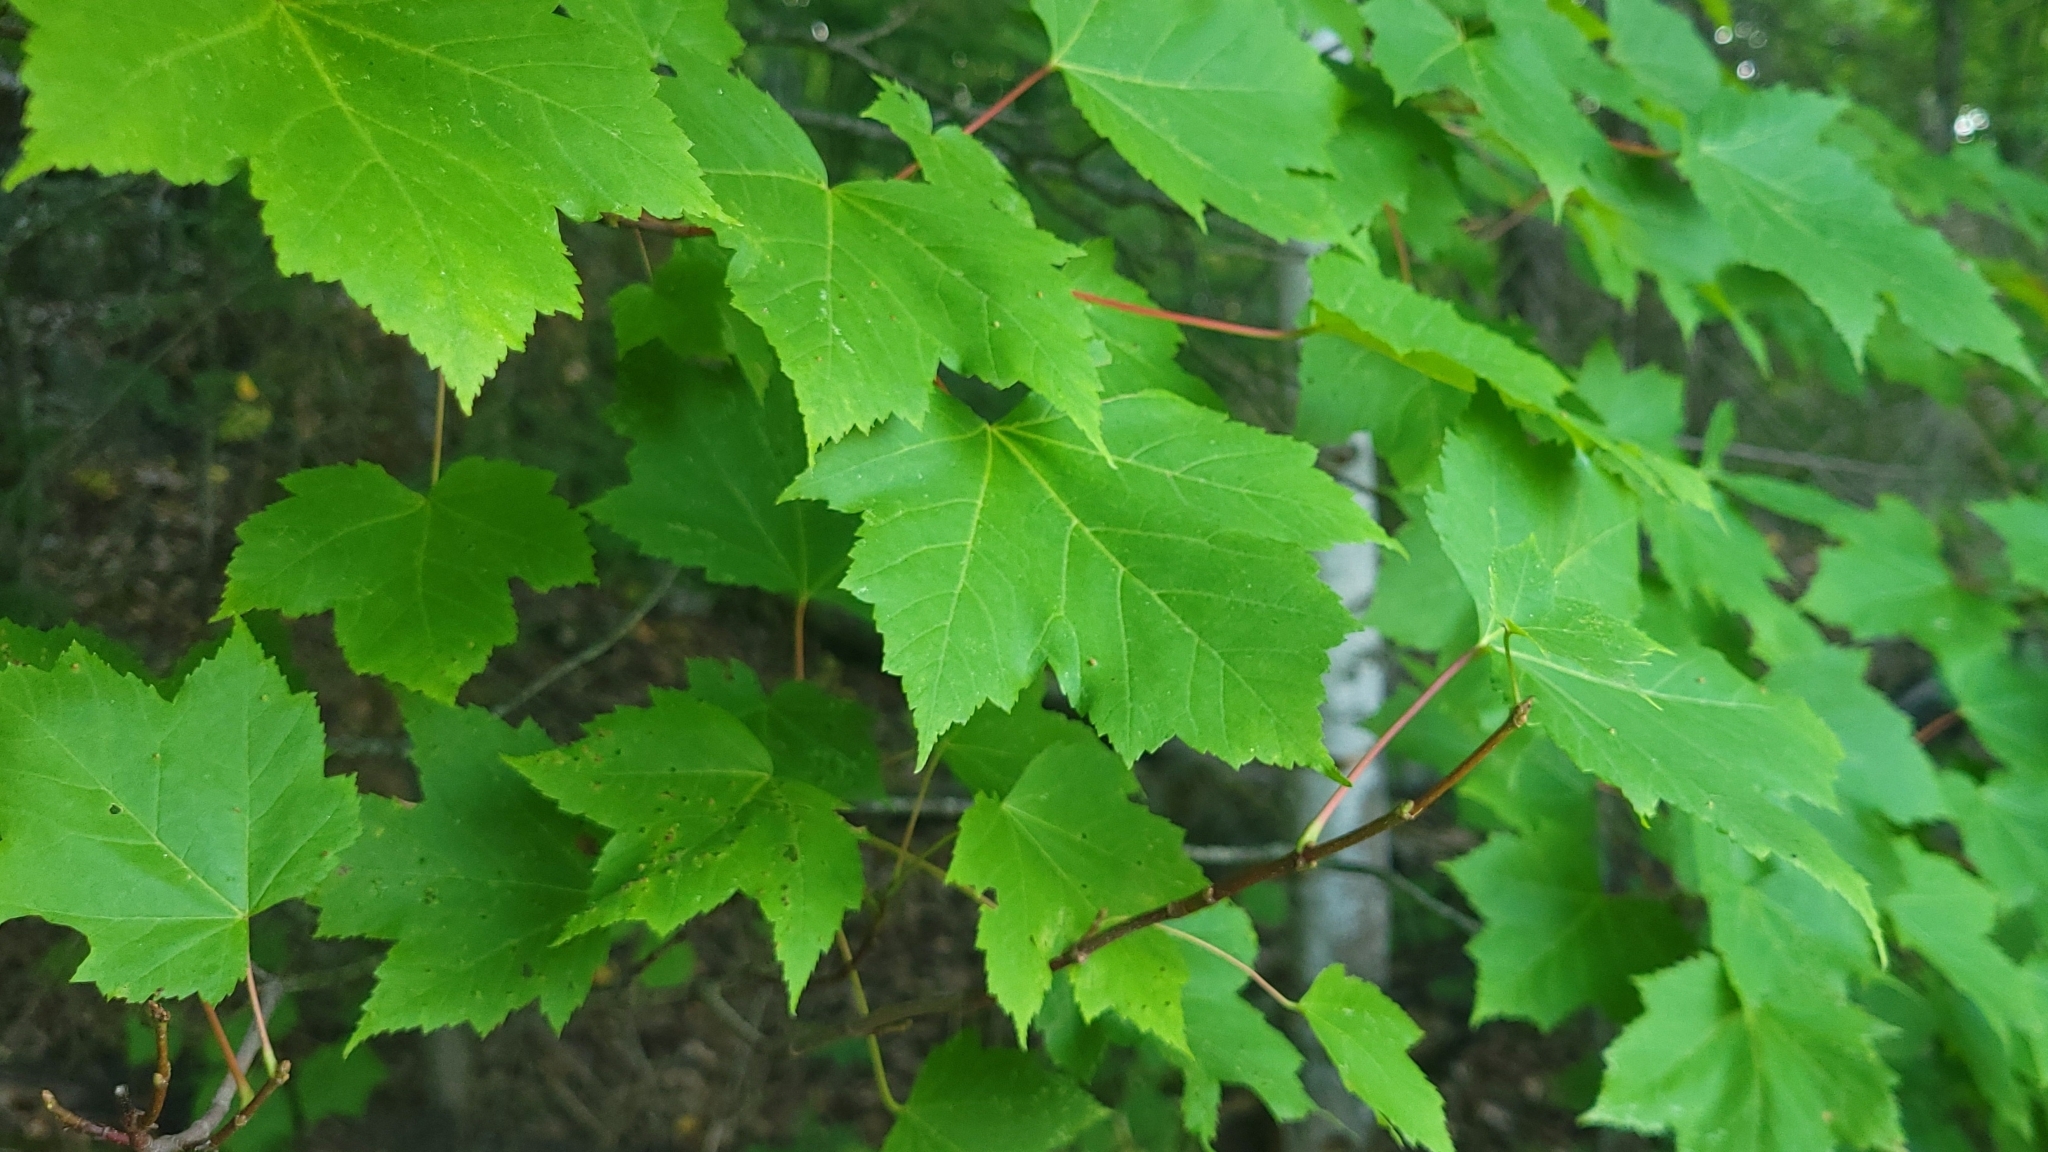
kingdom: Plantae
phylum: Tracheophyta
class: Magnoliopsida
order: Sapindales
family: Sapindaceae
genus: Acer
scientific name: Acer rubrum
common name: Red maple
